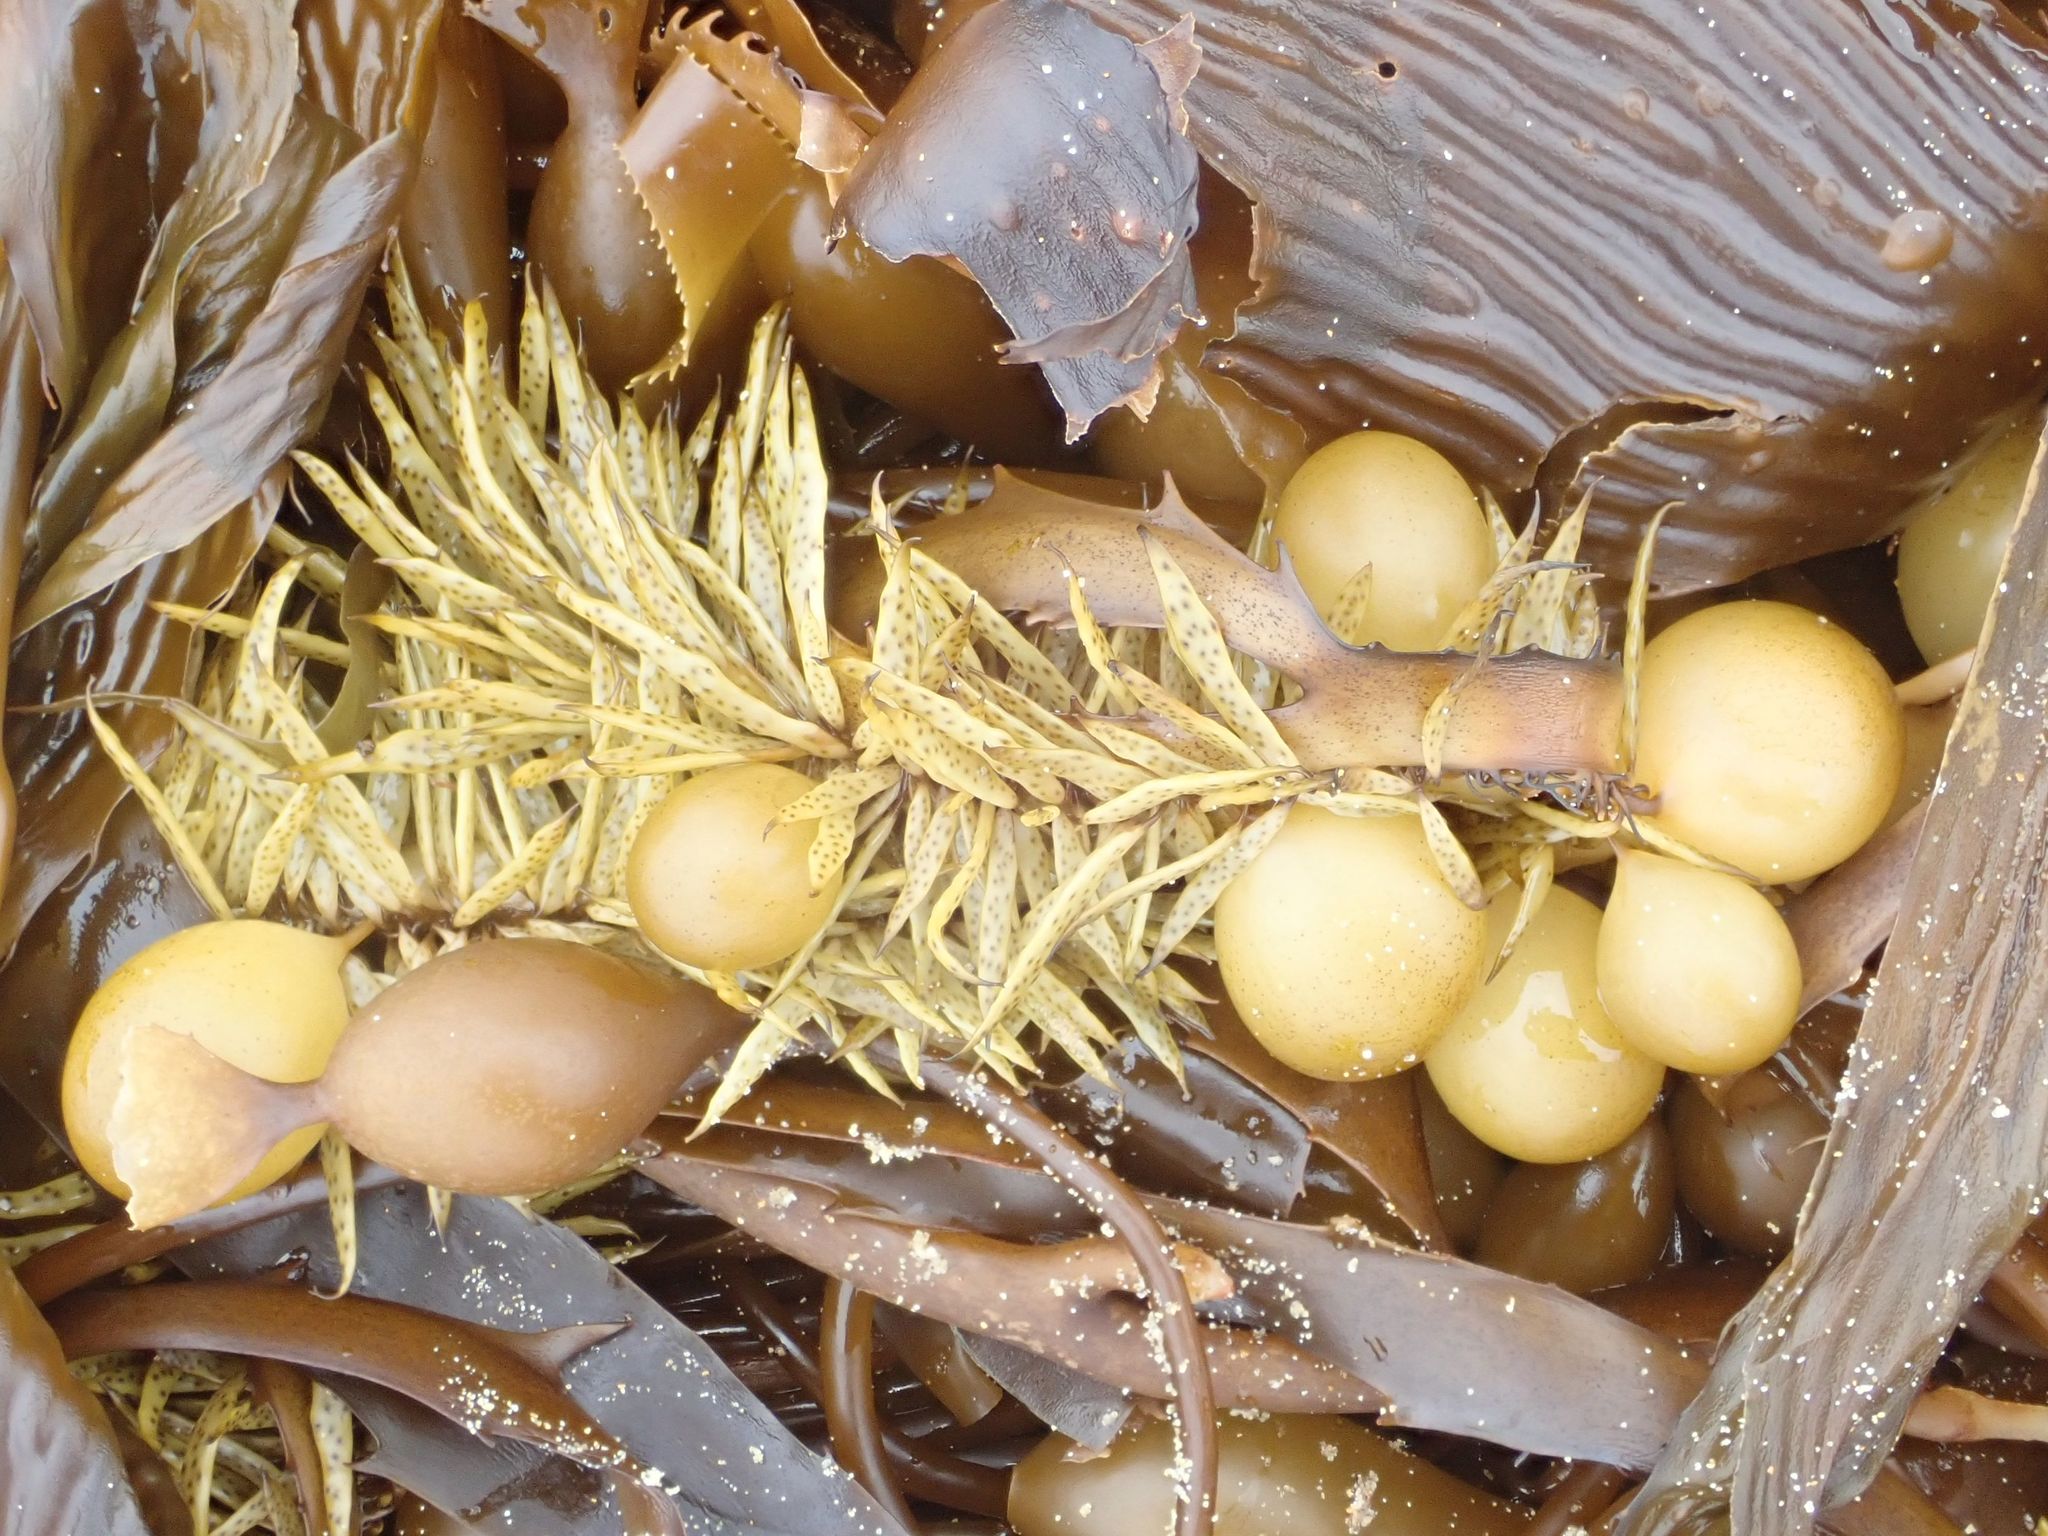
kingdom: Chromista
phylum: Ochrophyta
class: Phaeophyceae
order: Fucales
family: Seirococcaceae
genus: Marginariella
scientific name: Marginariella urvilliana
